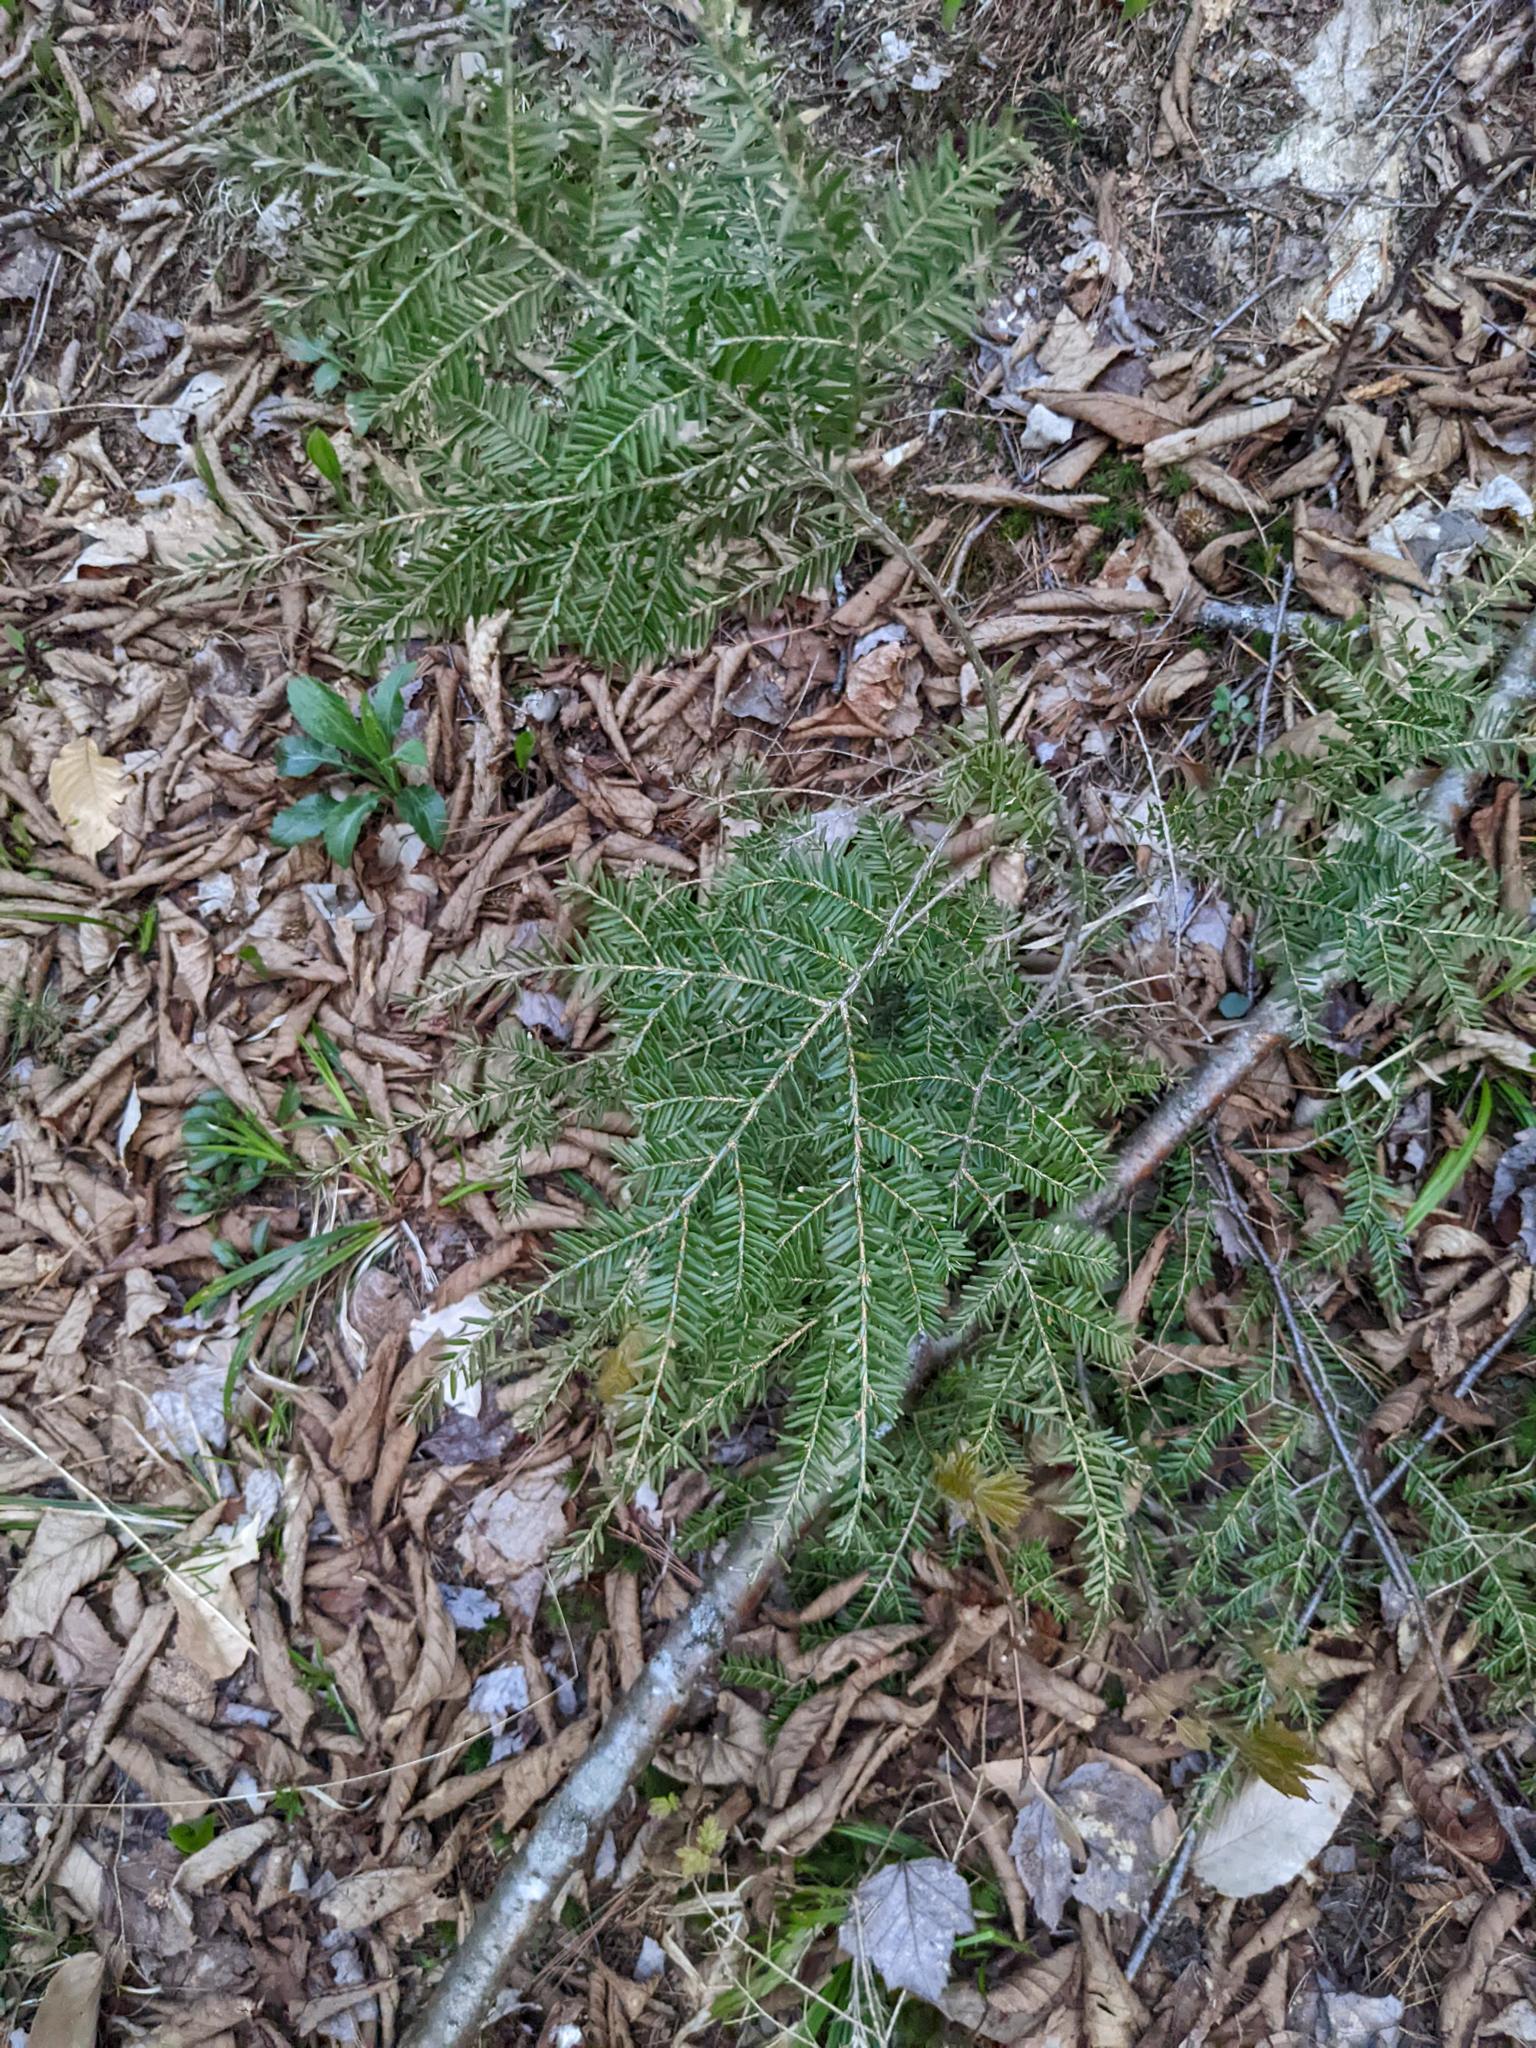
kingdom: Plantae
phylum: Tracheophyta
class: Pinopsida
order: Pinales
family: Pinaceae
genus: Tsuga
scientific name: Tsuga canadensis
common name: Eastern hemlock
